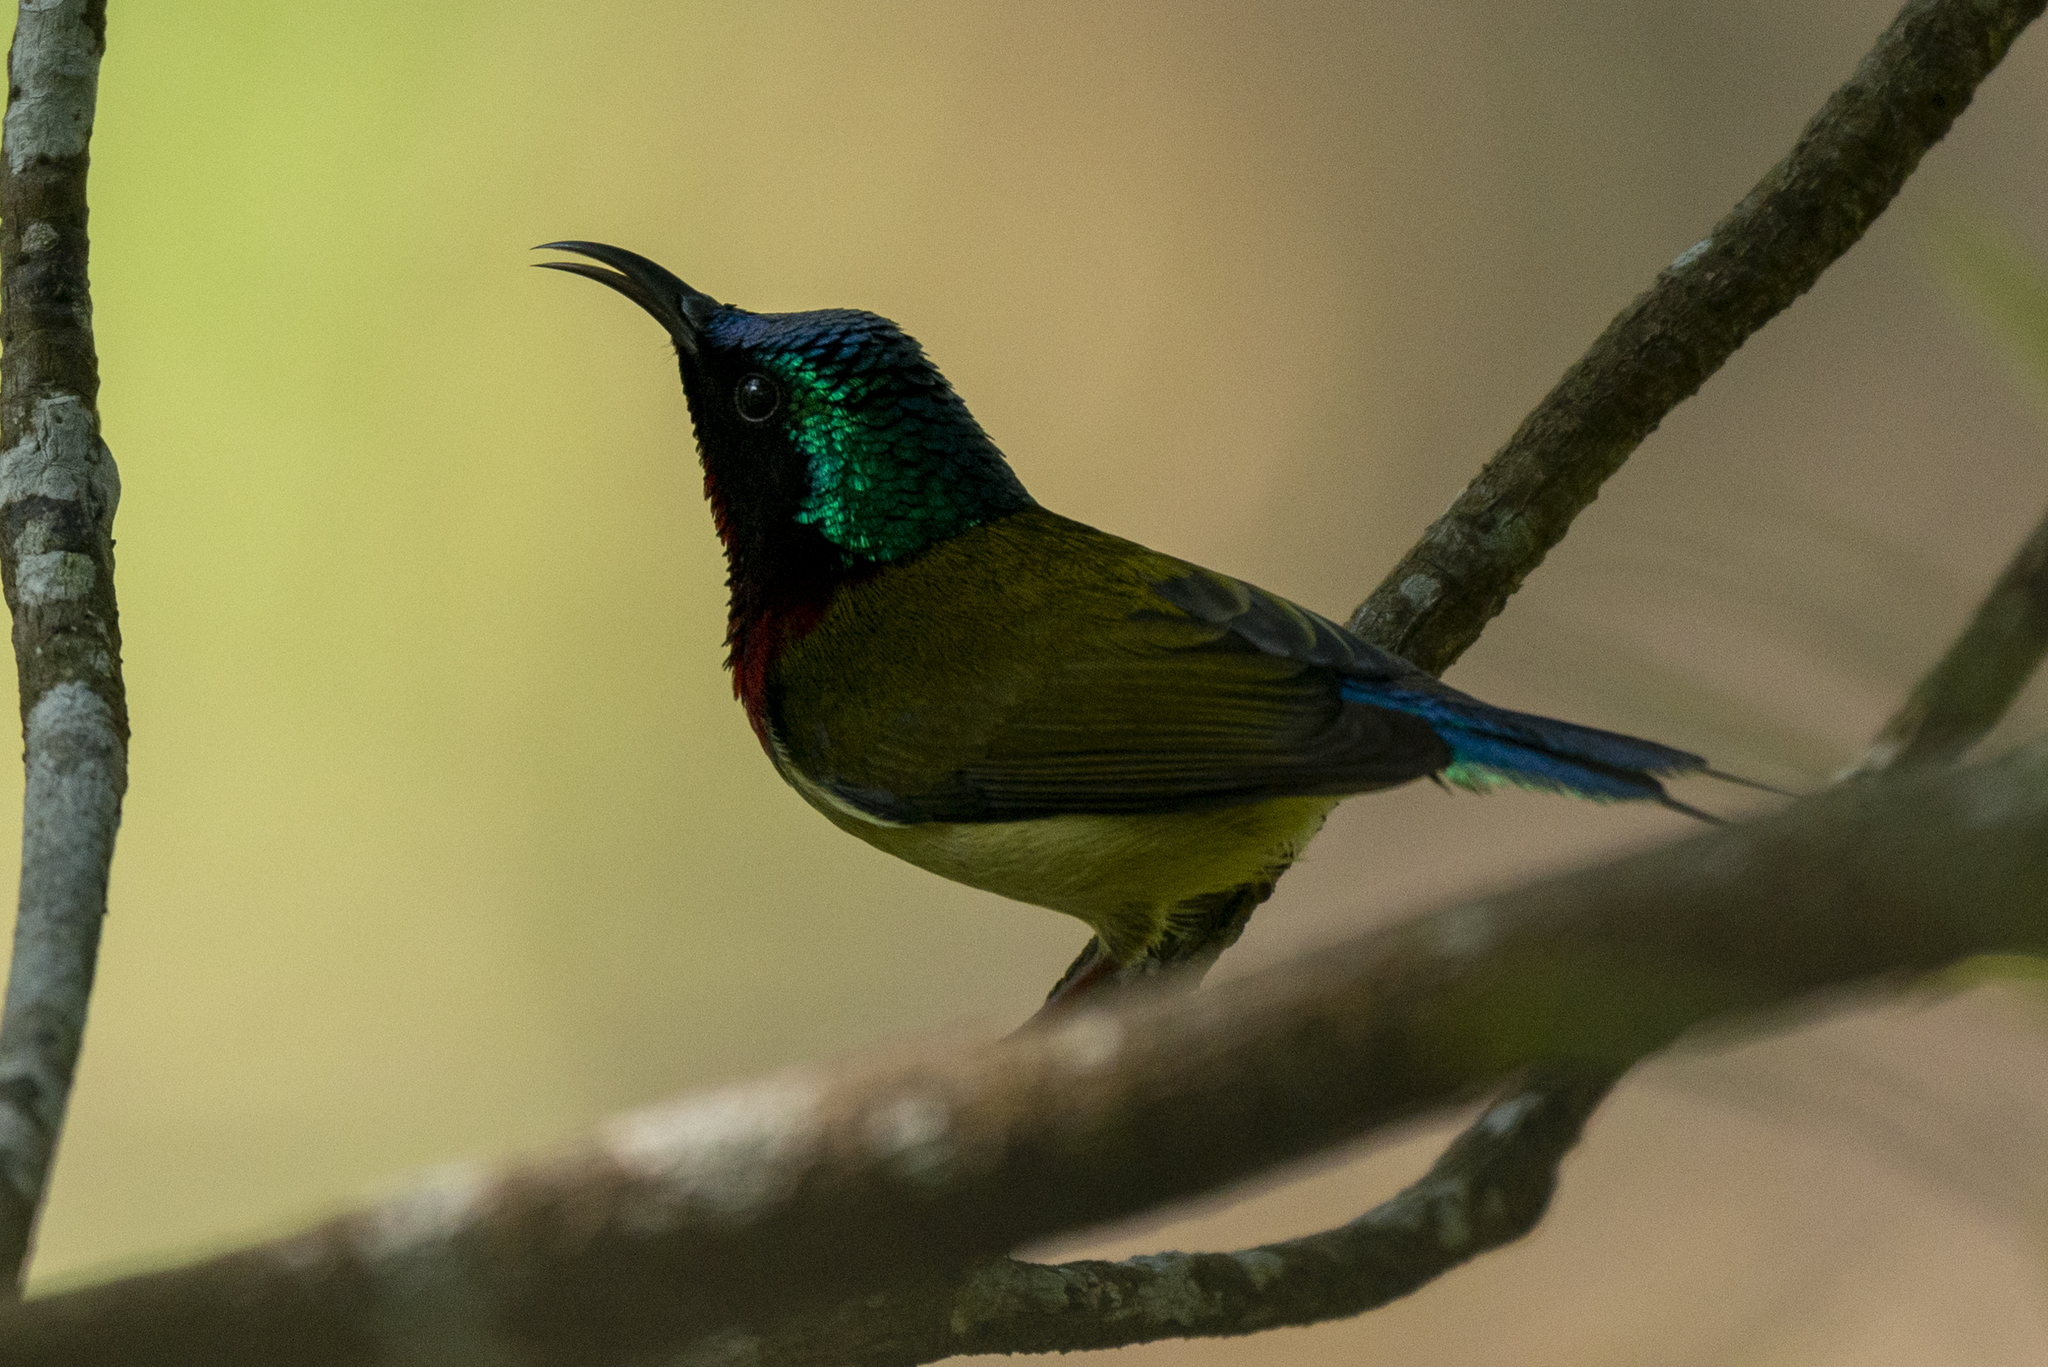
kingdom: Animalia
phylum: Chordata
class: Aves
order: Passeriformes
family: Nectariniidae
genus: Aethopyga
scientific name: Aethopyga christinae
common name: Fork-tailed sunbird
